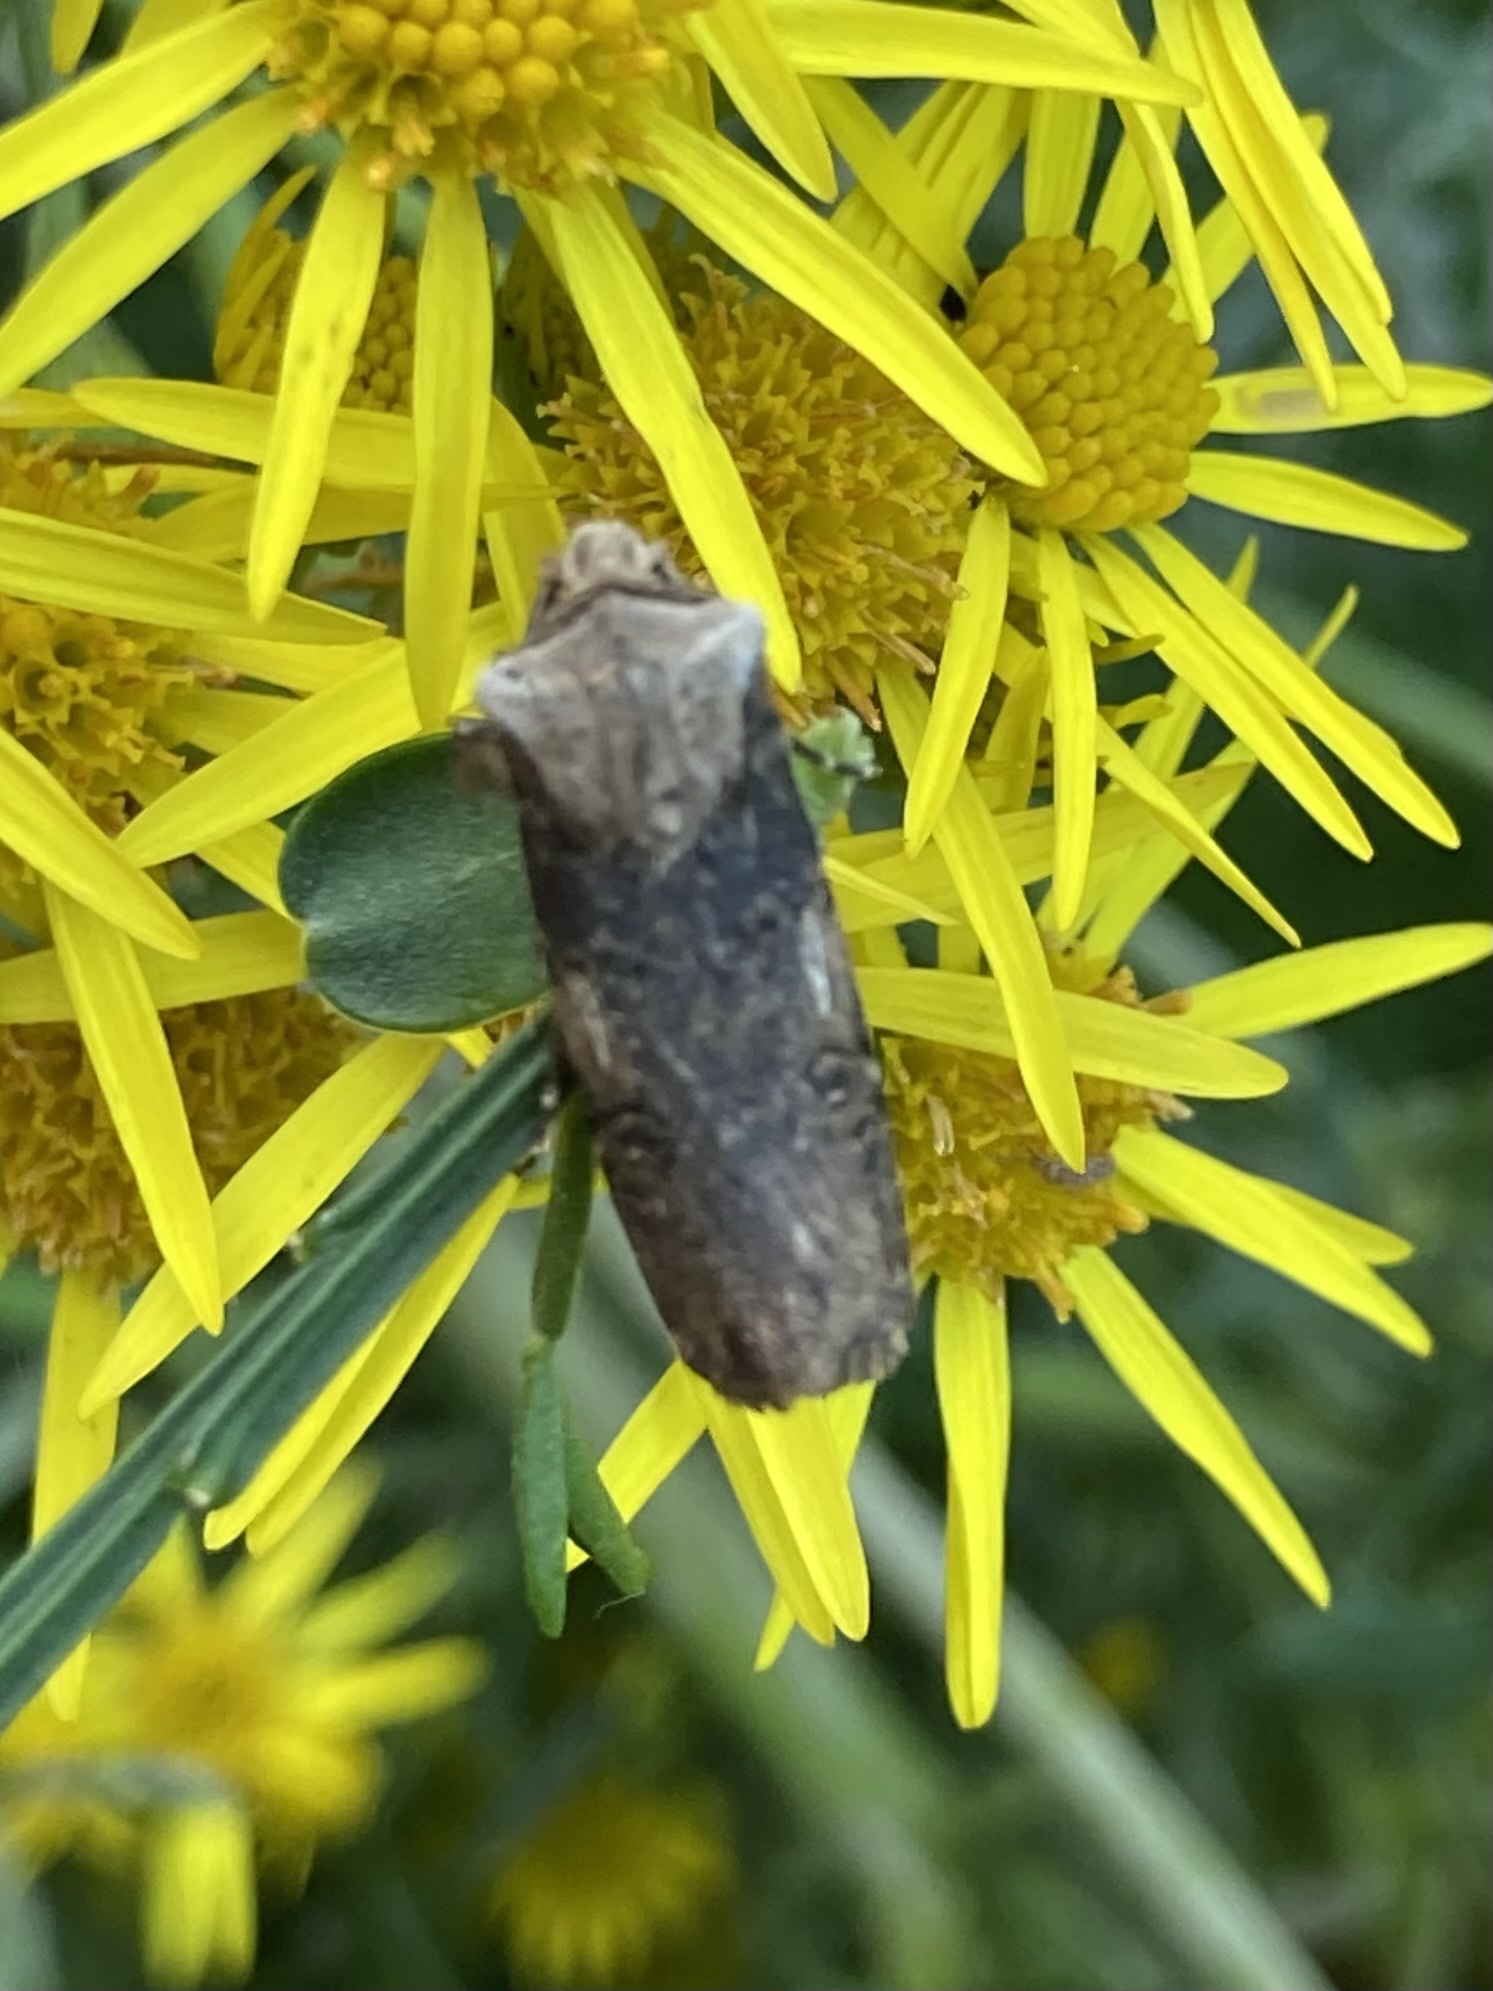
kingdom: Animalia
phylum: Arthropoda
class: Insecta
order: Lepidoptera
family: Noctuidae
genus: Agrotis
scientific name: Agrotis puta
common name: Shuttle-shaped dart
